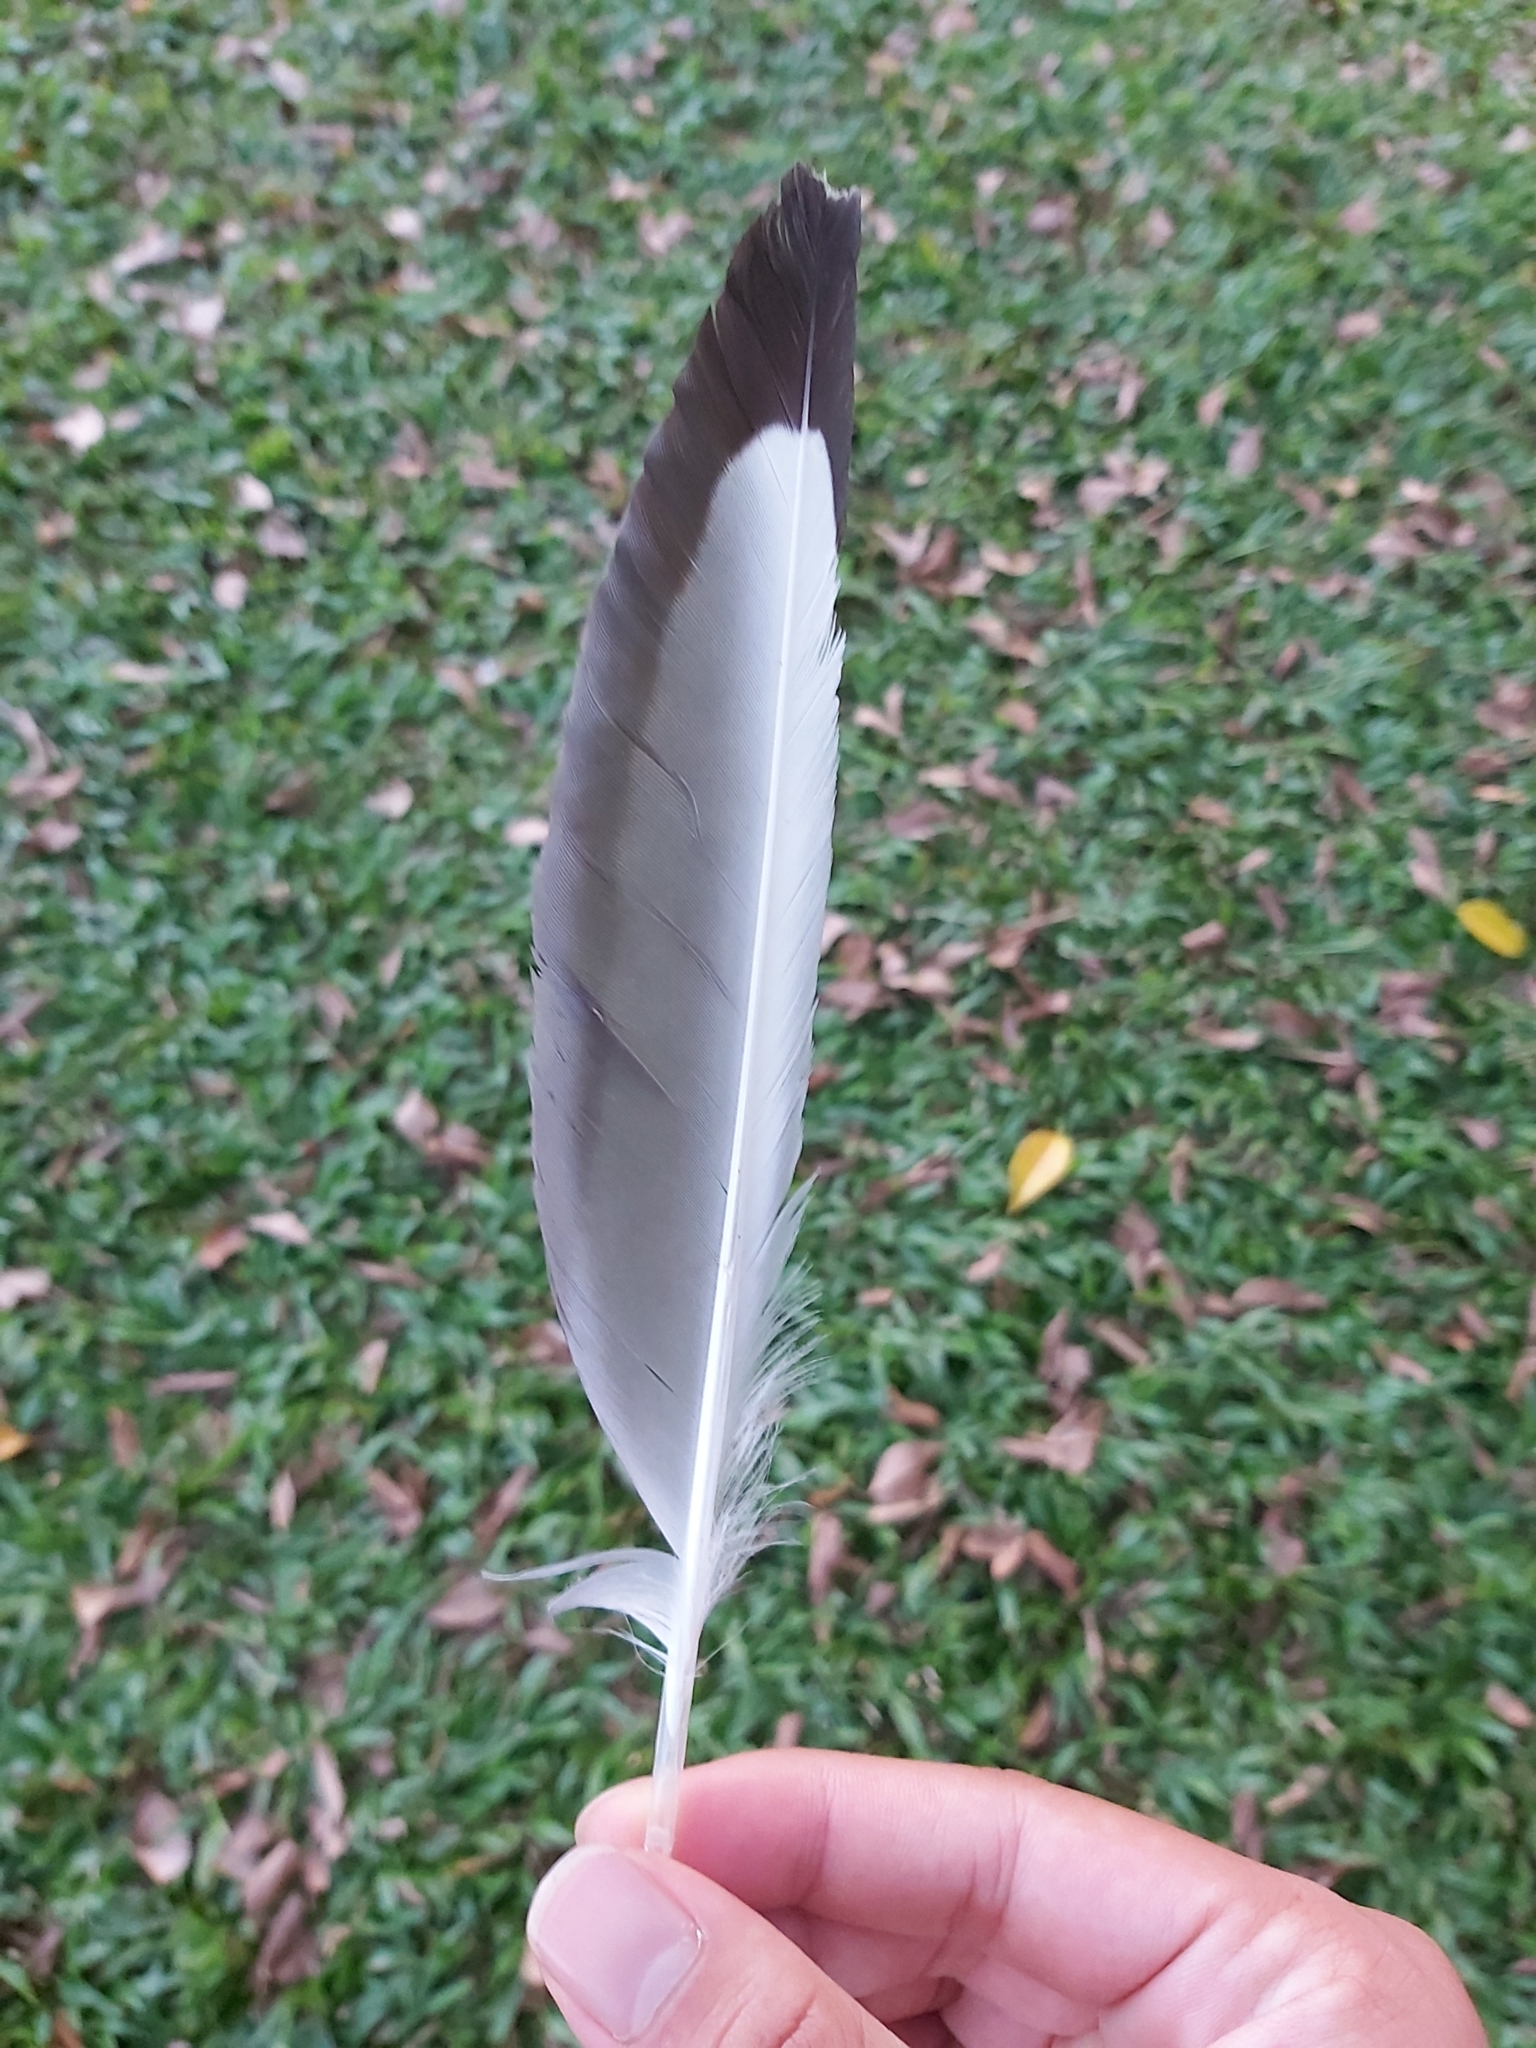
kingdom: Animalia
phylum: Chordata
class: Aves
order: Charadriiformes
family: Laridae
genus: Chroicocephalus
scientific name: Chroicocephalus novaehollandiae
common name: Silver gull
